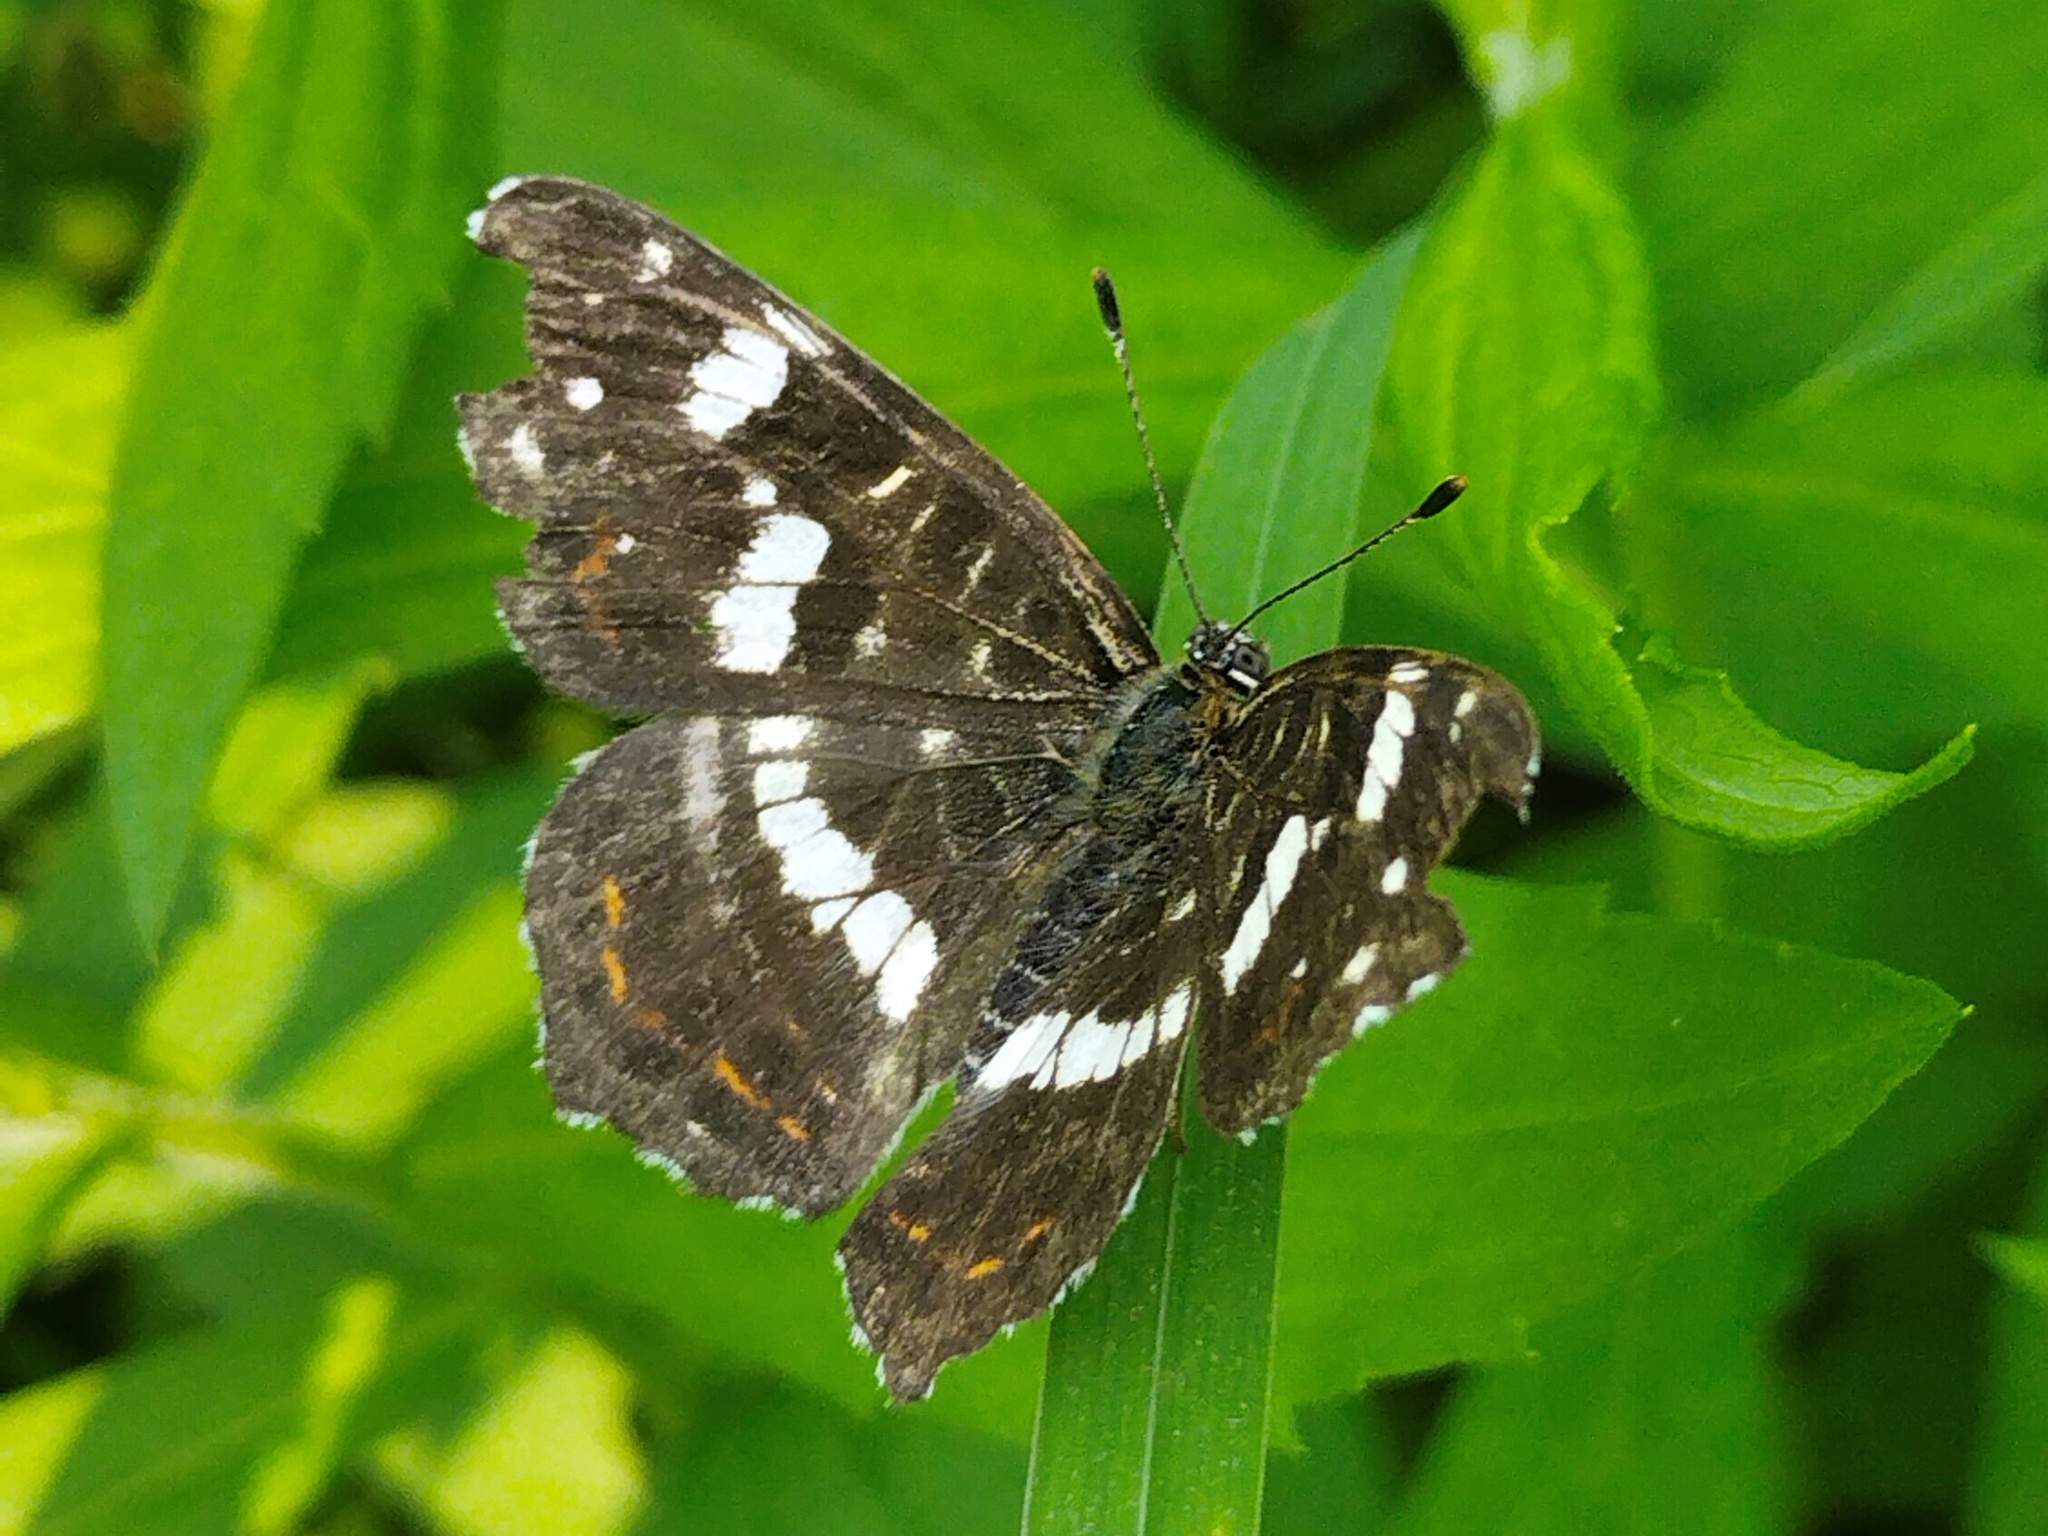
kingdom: Animalia
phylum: Arthropoda
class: Insecta
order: Lepidoptera
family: Nymphalidae
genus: Araschnia
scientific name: Araschnia levana
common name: Map butterfly
